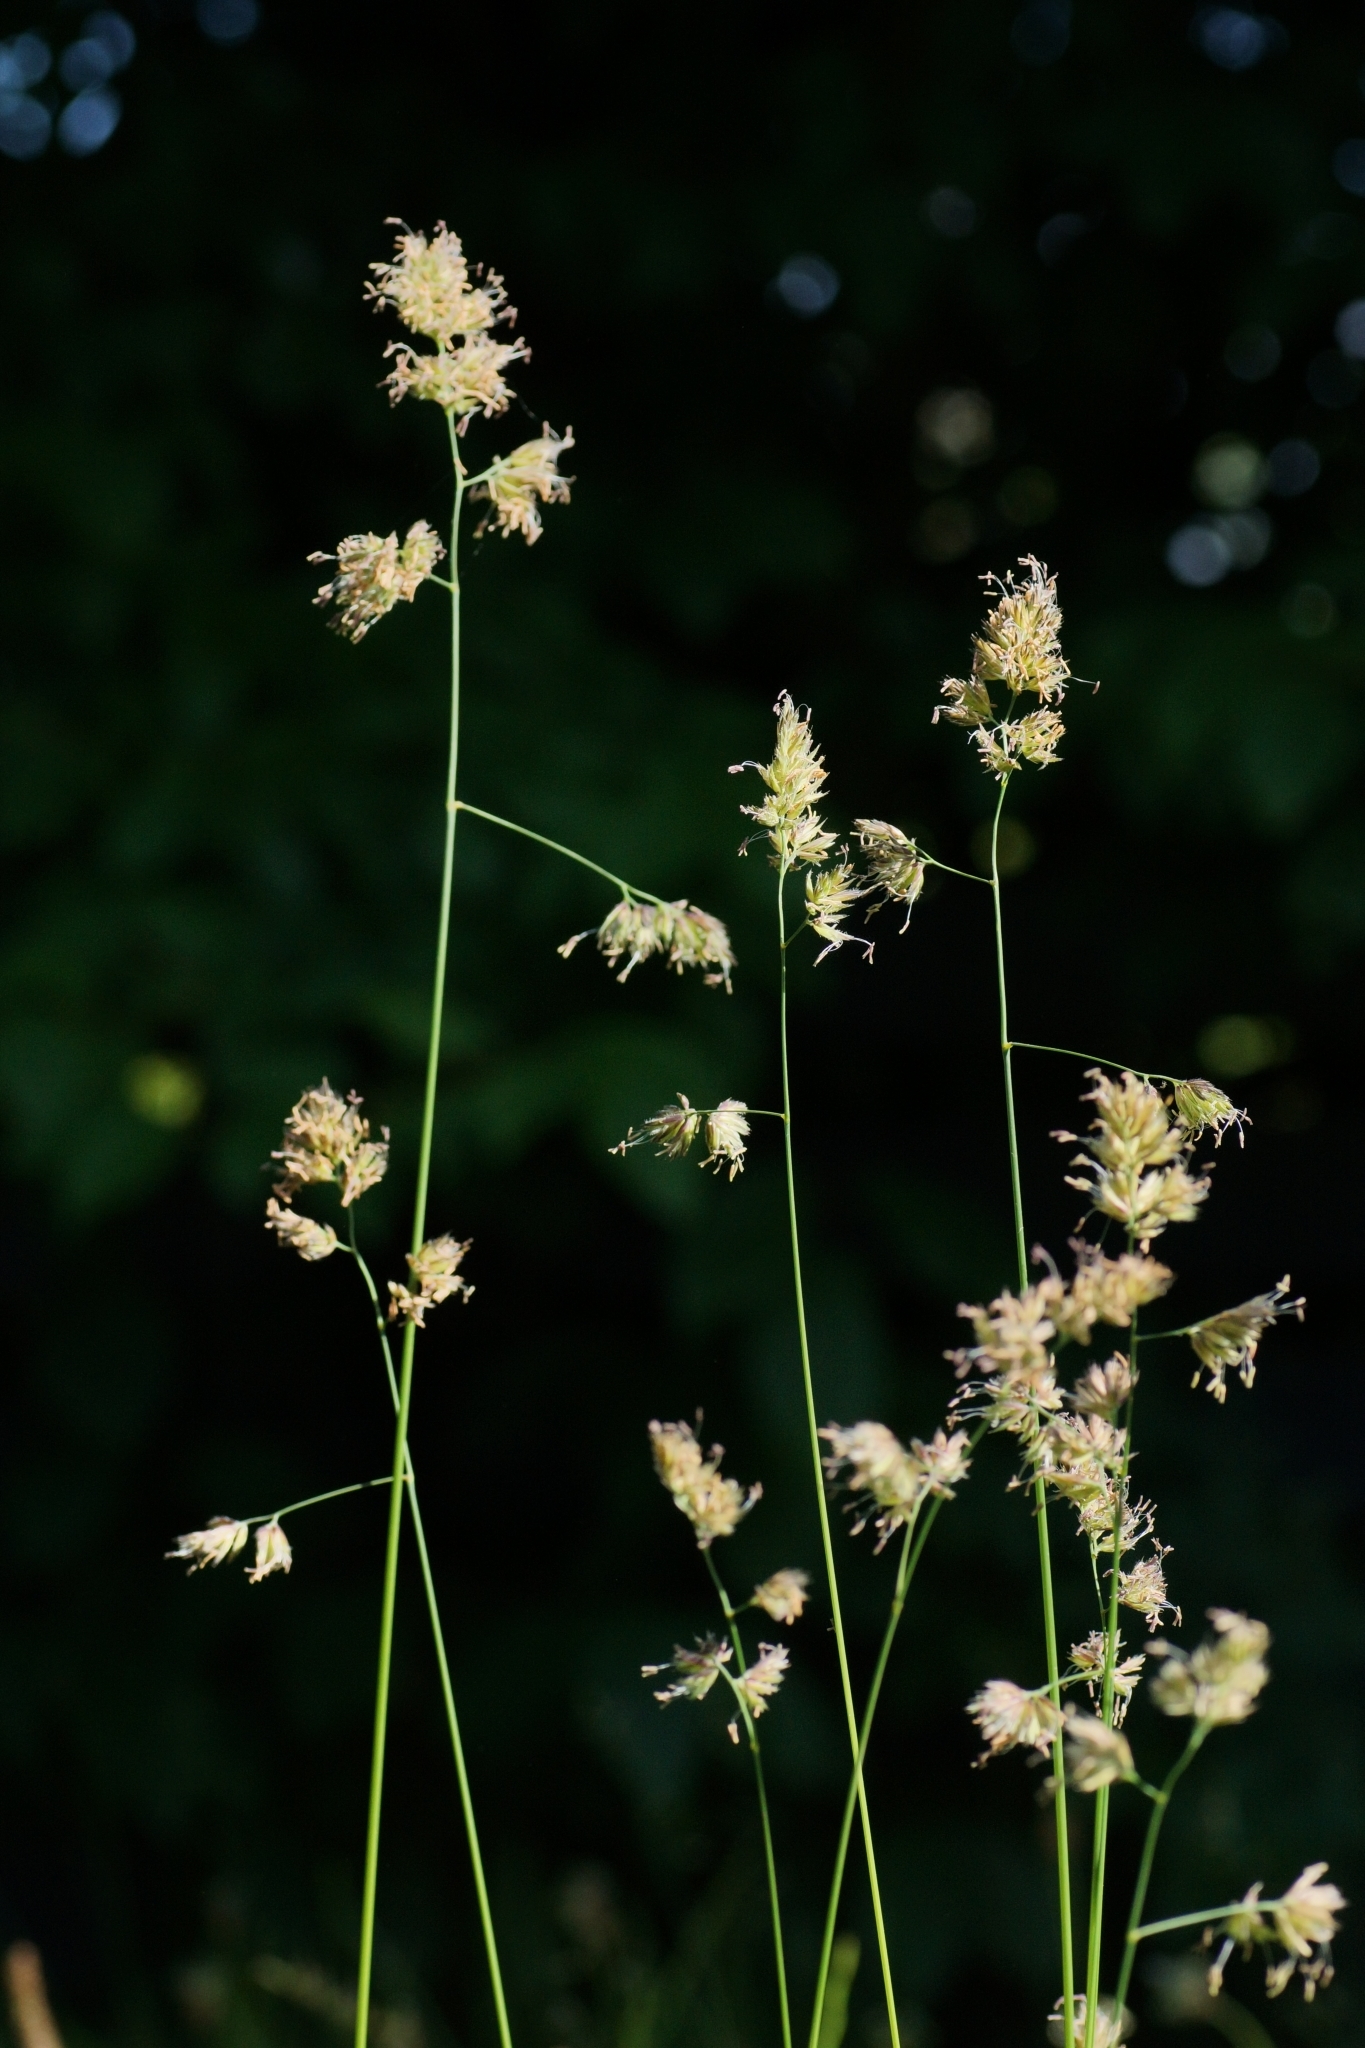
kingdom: Plantae
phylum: Tracheophyta
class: Liliopsida
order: Poales
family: Poaceae
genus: Dactylis
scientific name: Dactylis glomerata
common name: Orchardgrass
